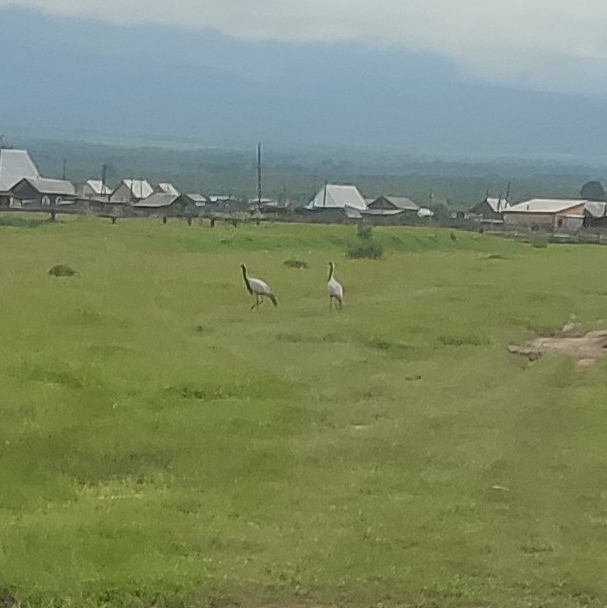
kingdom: Animalia
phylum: Chordata
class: Aves
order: Gruiformes
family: Gruidae
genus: Anthropoides
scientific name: Anthropoides virgo
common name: Demoiselle crane
